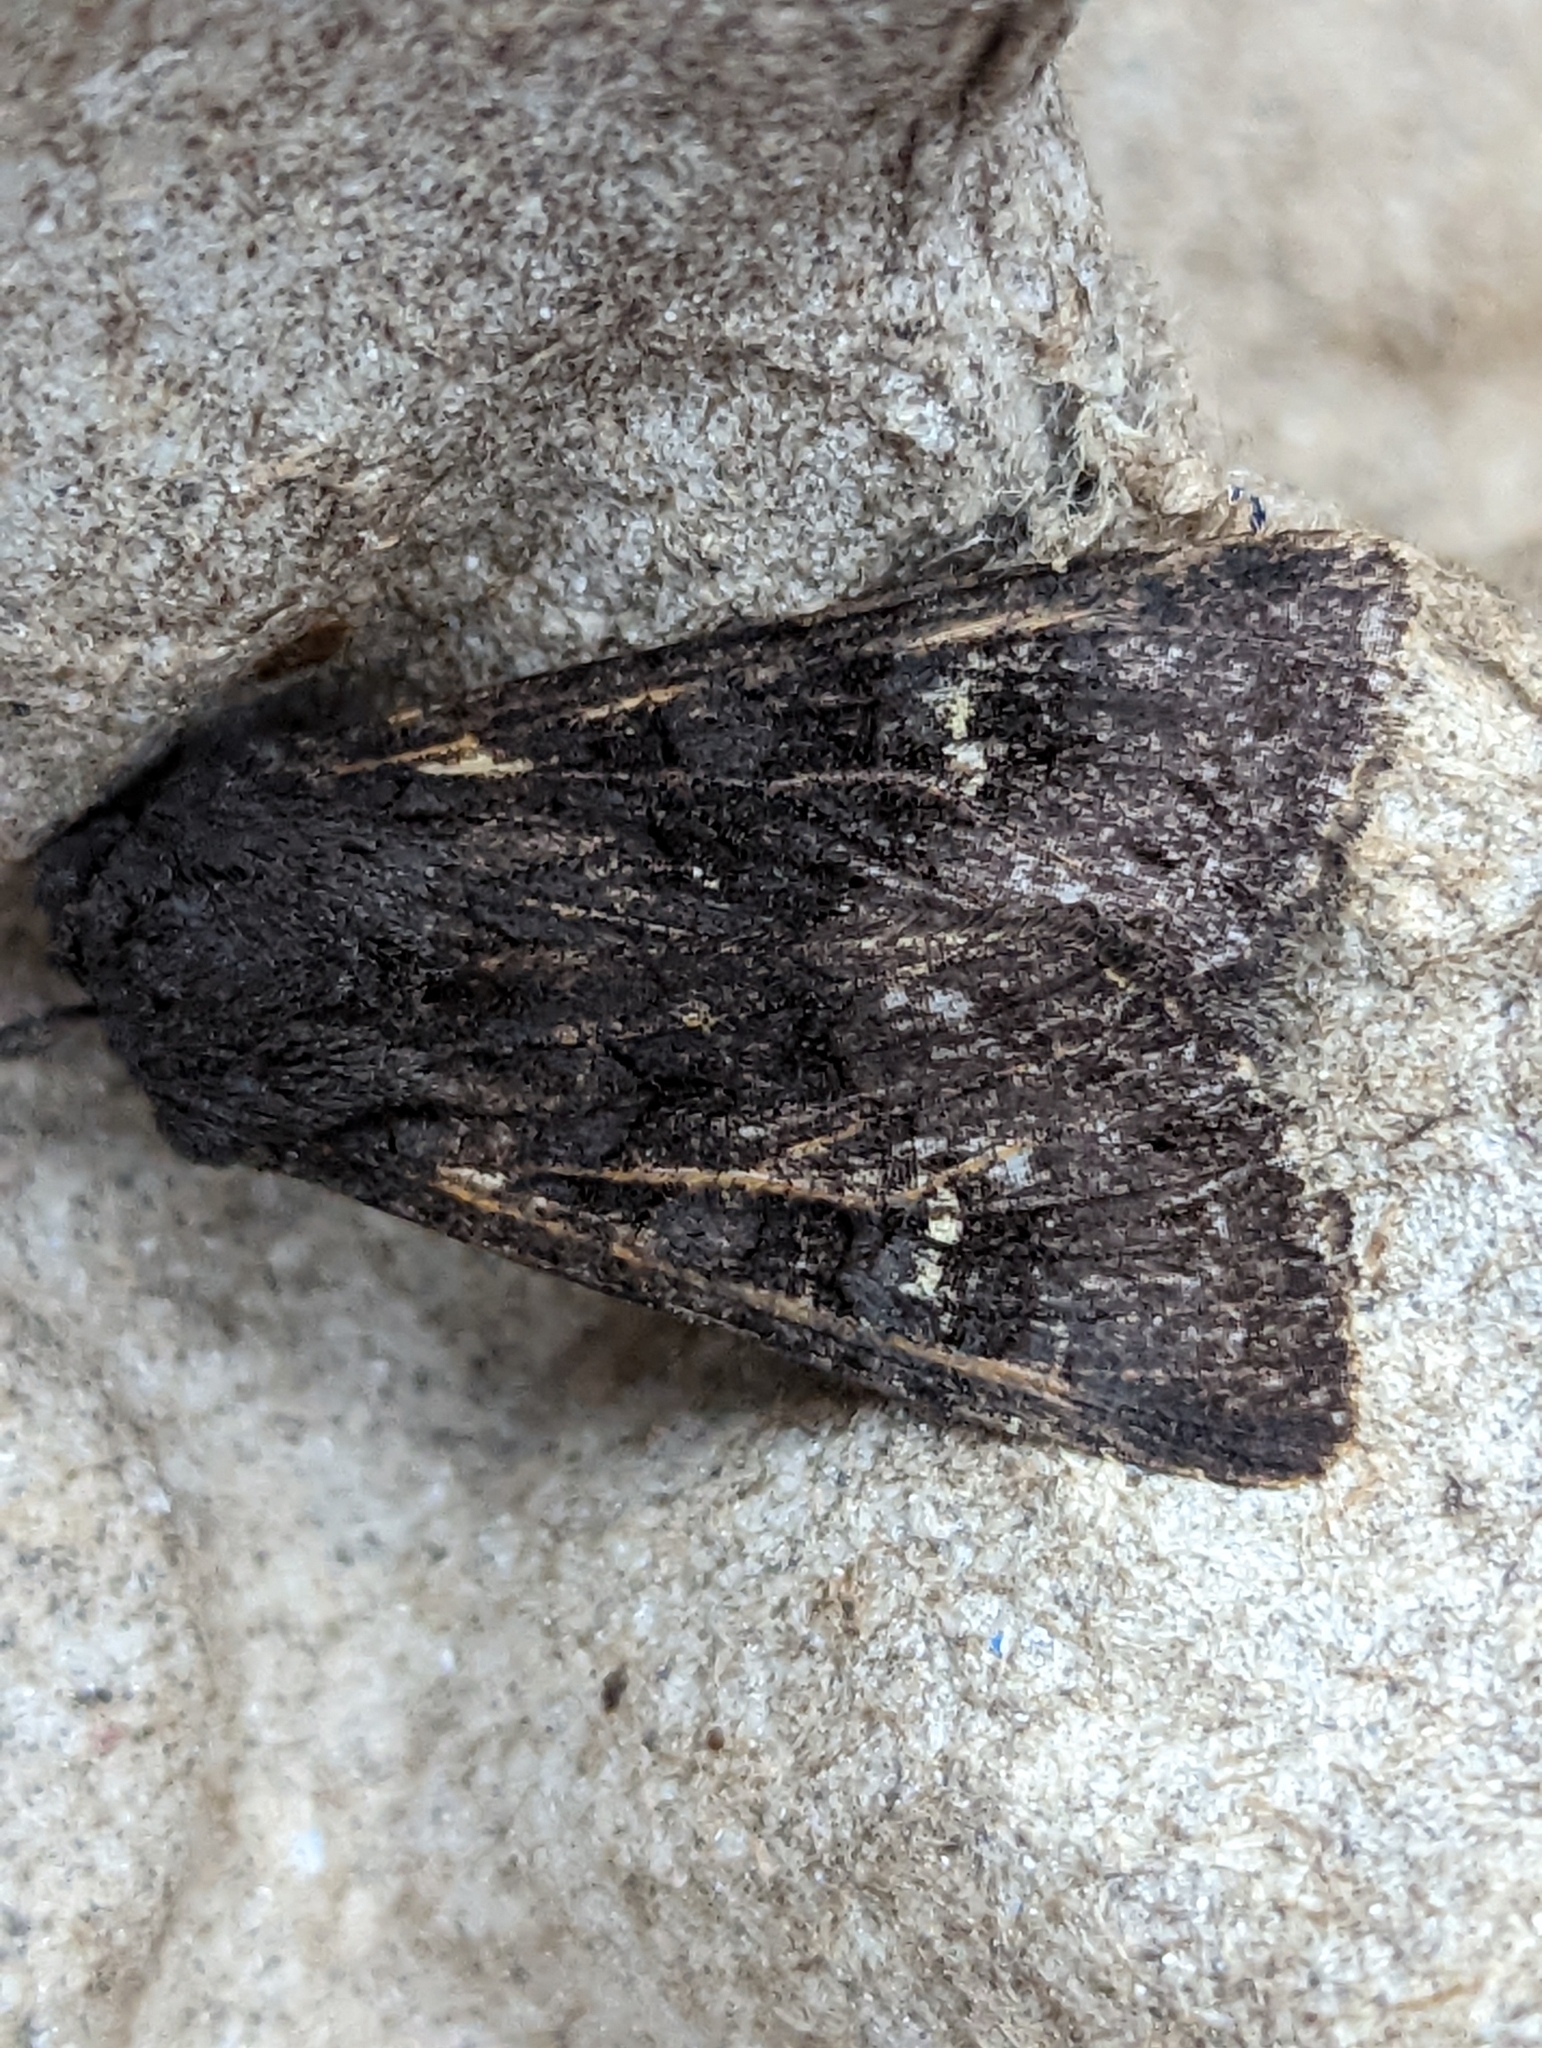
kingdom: Animalia
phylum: Arthropoda
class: Insecta
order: Lepidoptera
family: Noctuidae
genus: Aporophyla
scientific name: Aporophyla nigra
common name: Black rustic
